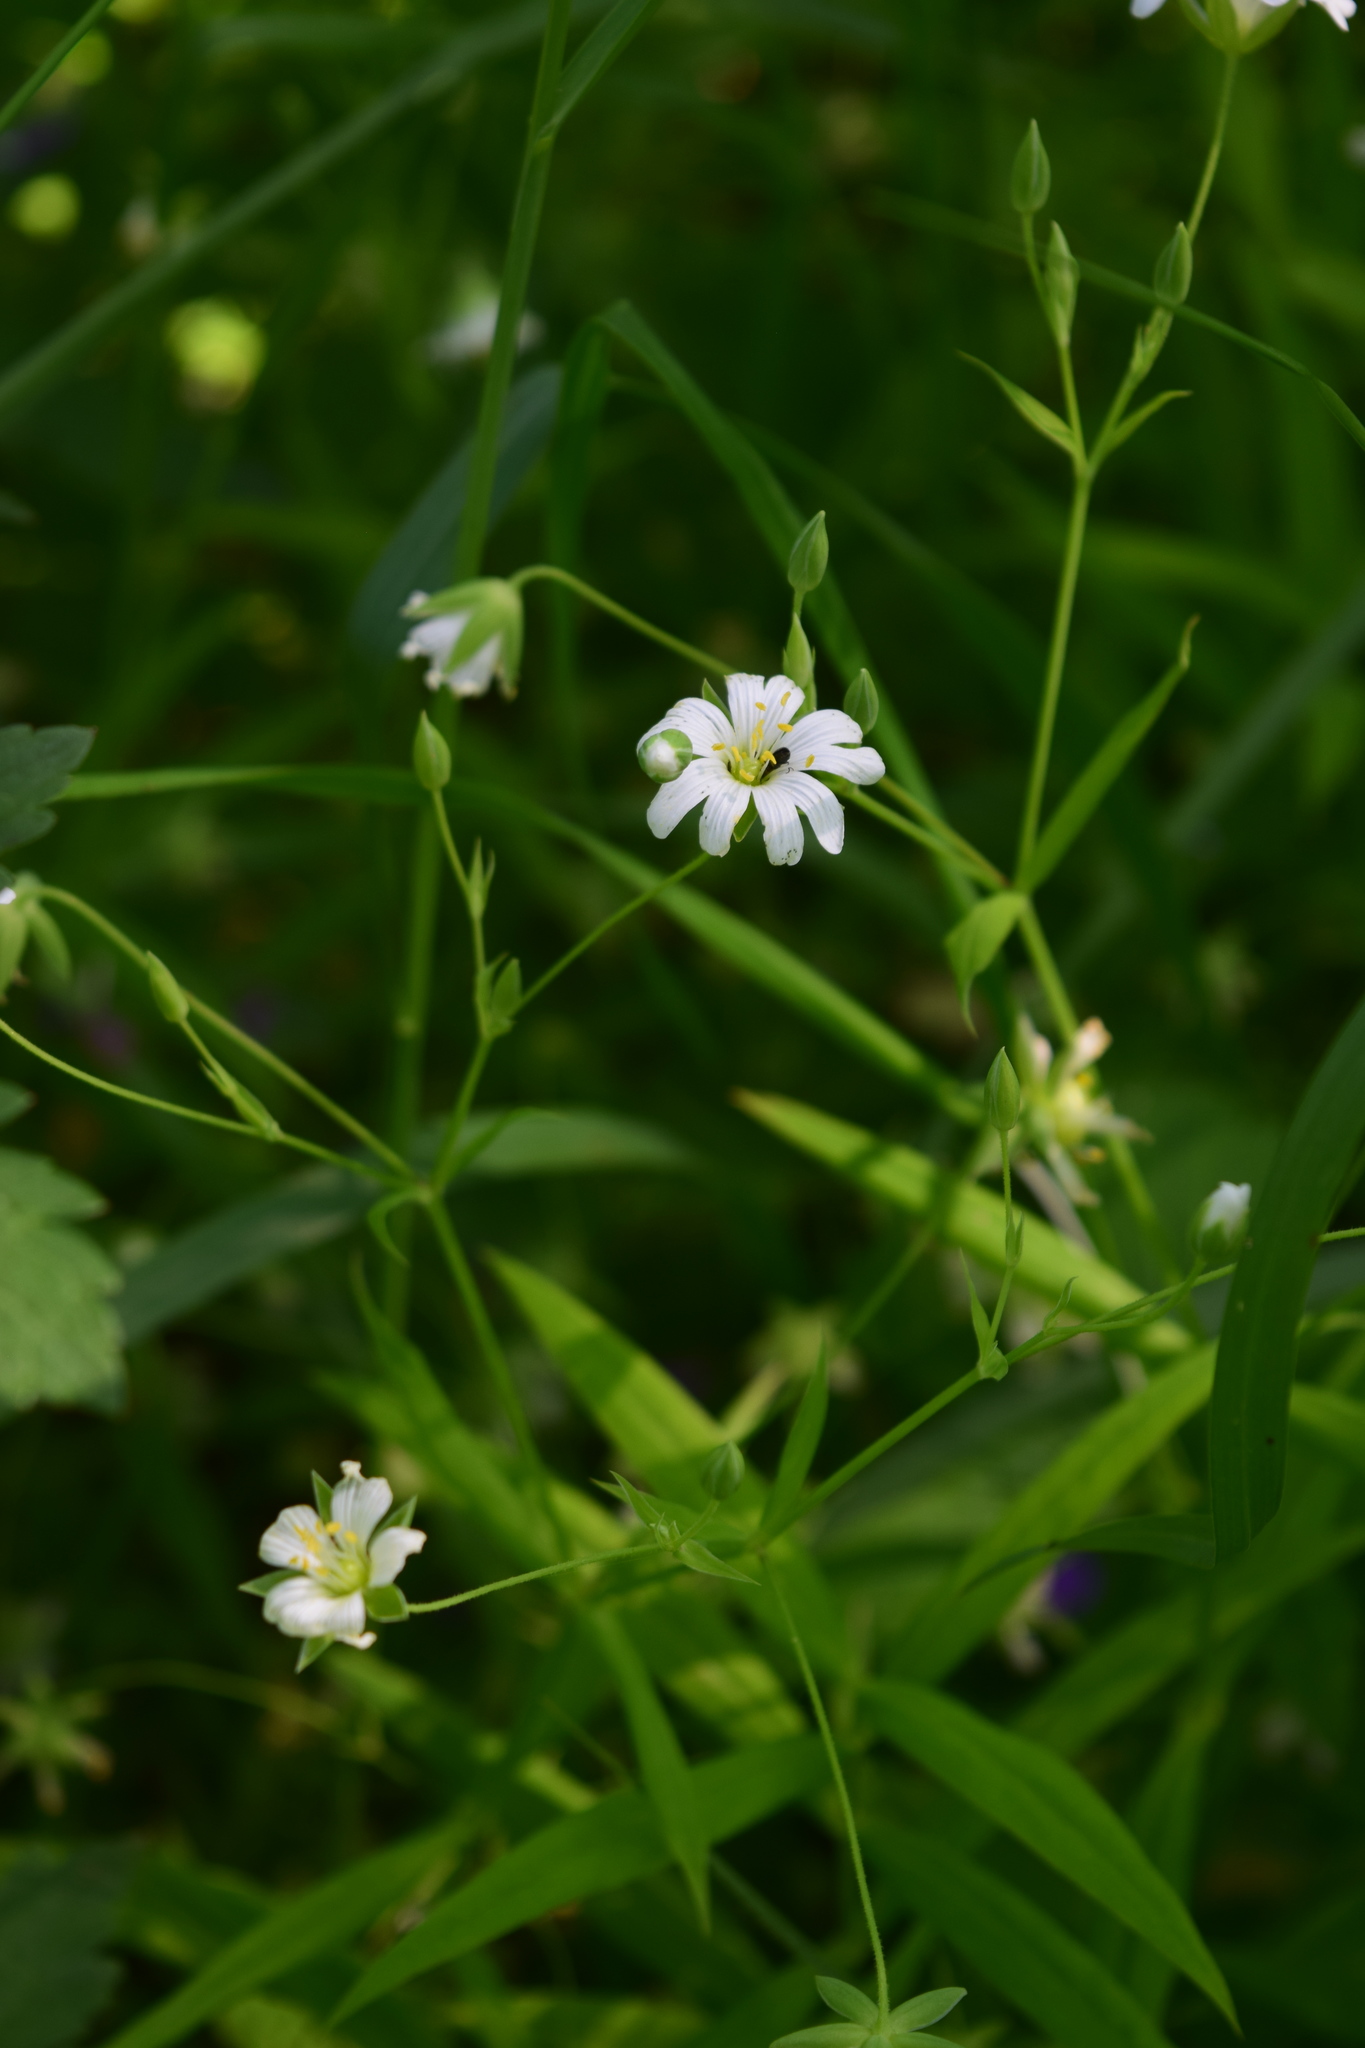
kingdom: Plantae
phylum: Tracheophyta
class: Magnoliopsida
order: Caryophyllales
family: Caryophyllaceae
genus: Rabelera
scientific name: Rabelera holostea
